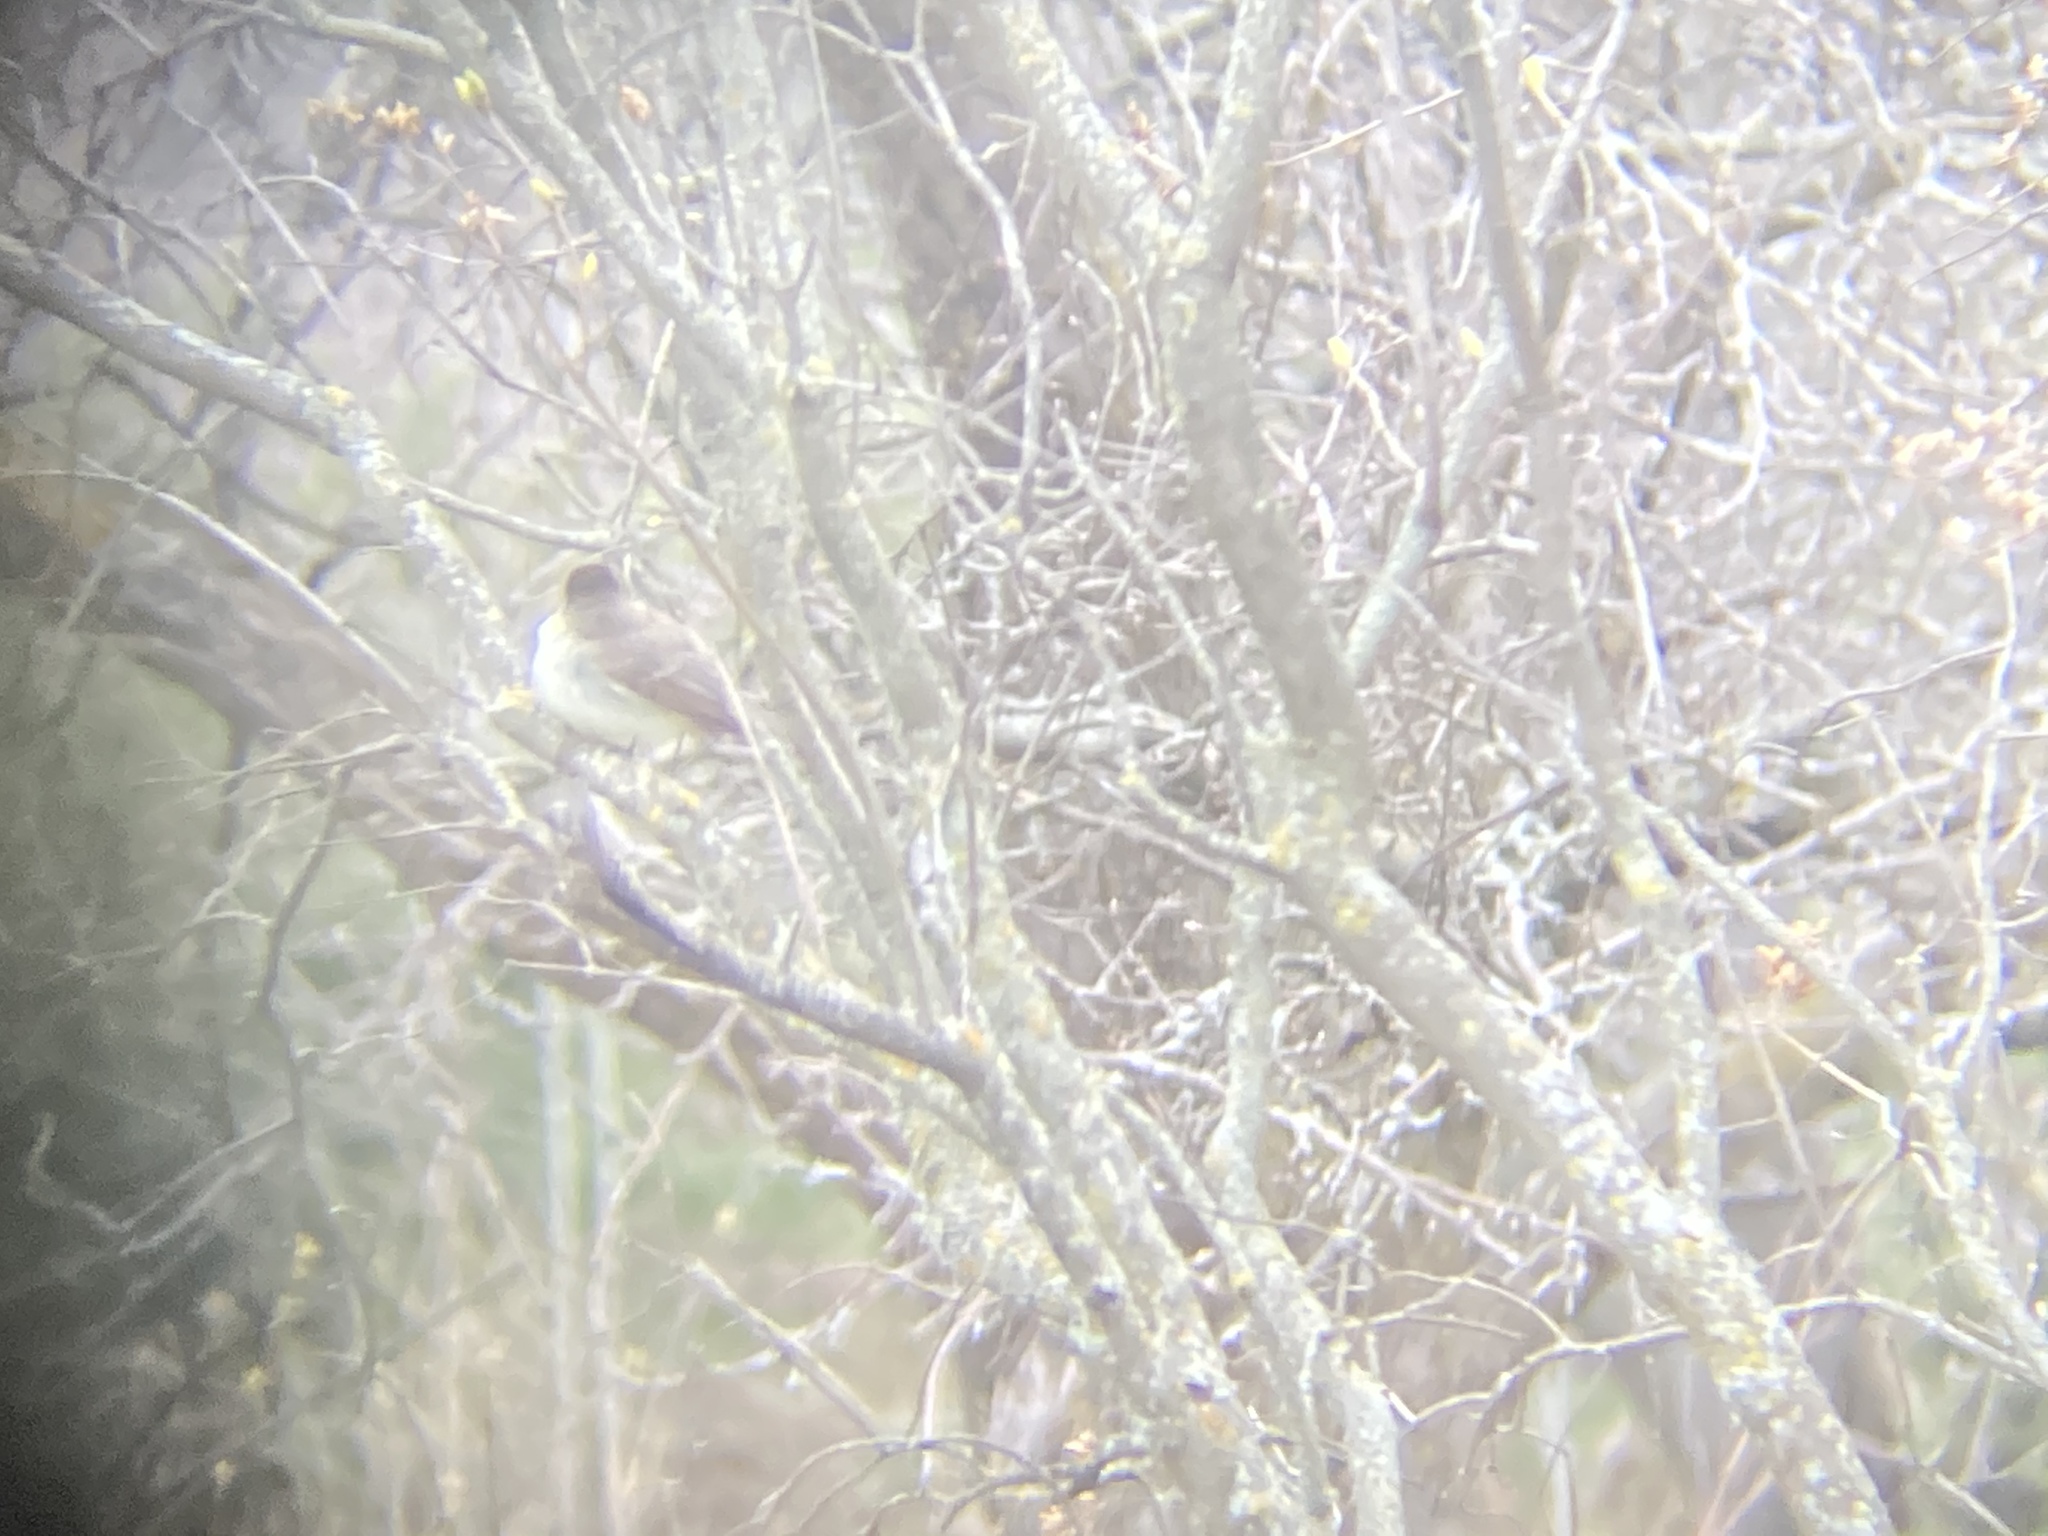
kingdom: Animalia
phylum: Chordata
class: Aves
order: Passeriformes
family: Tyrannidae
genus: Sayornis
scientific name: Sayornis phoebe
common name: Eastern phoebe
